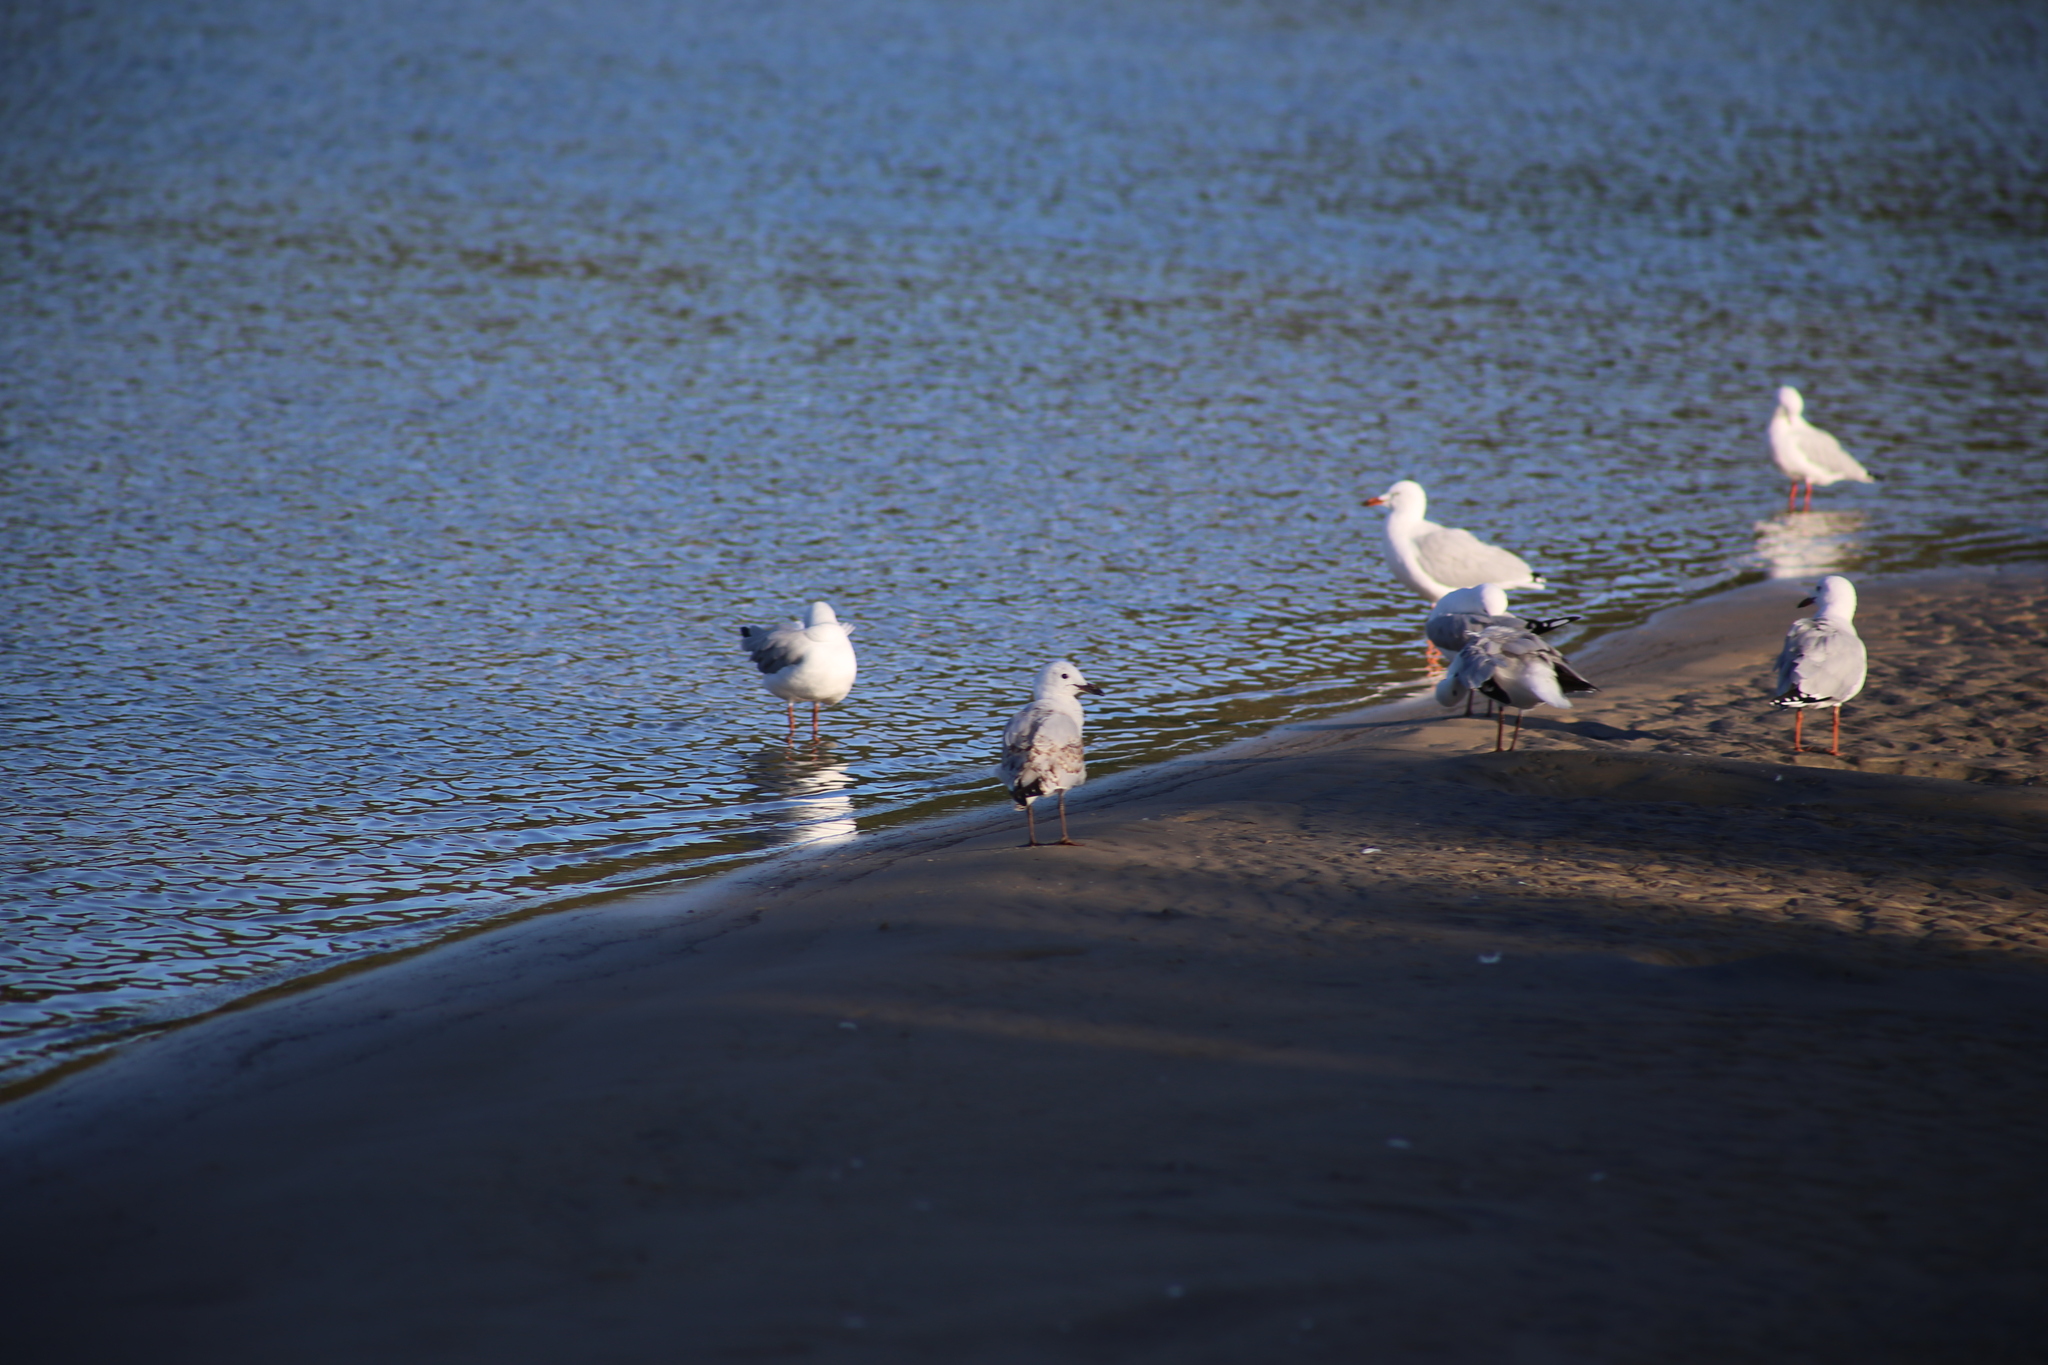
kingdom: Animalia
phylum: Chordata
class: Aves
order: Charadriiformes
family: Laridae
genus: Chroicocephalus
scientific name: Chroicocephalus novaehollandiae
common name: Silver gull
